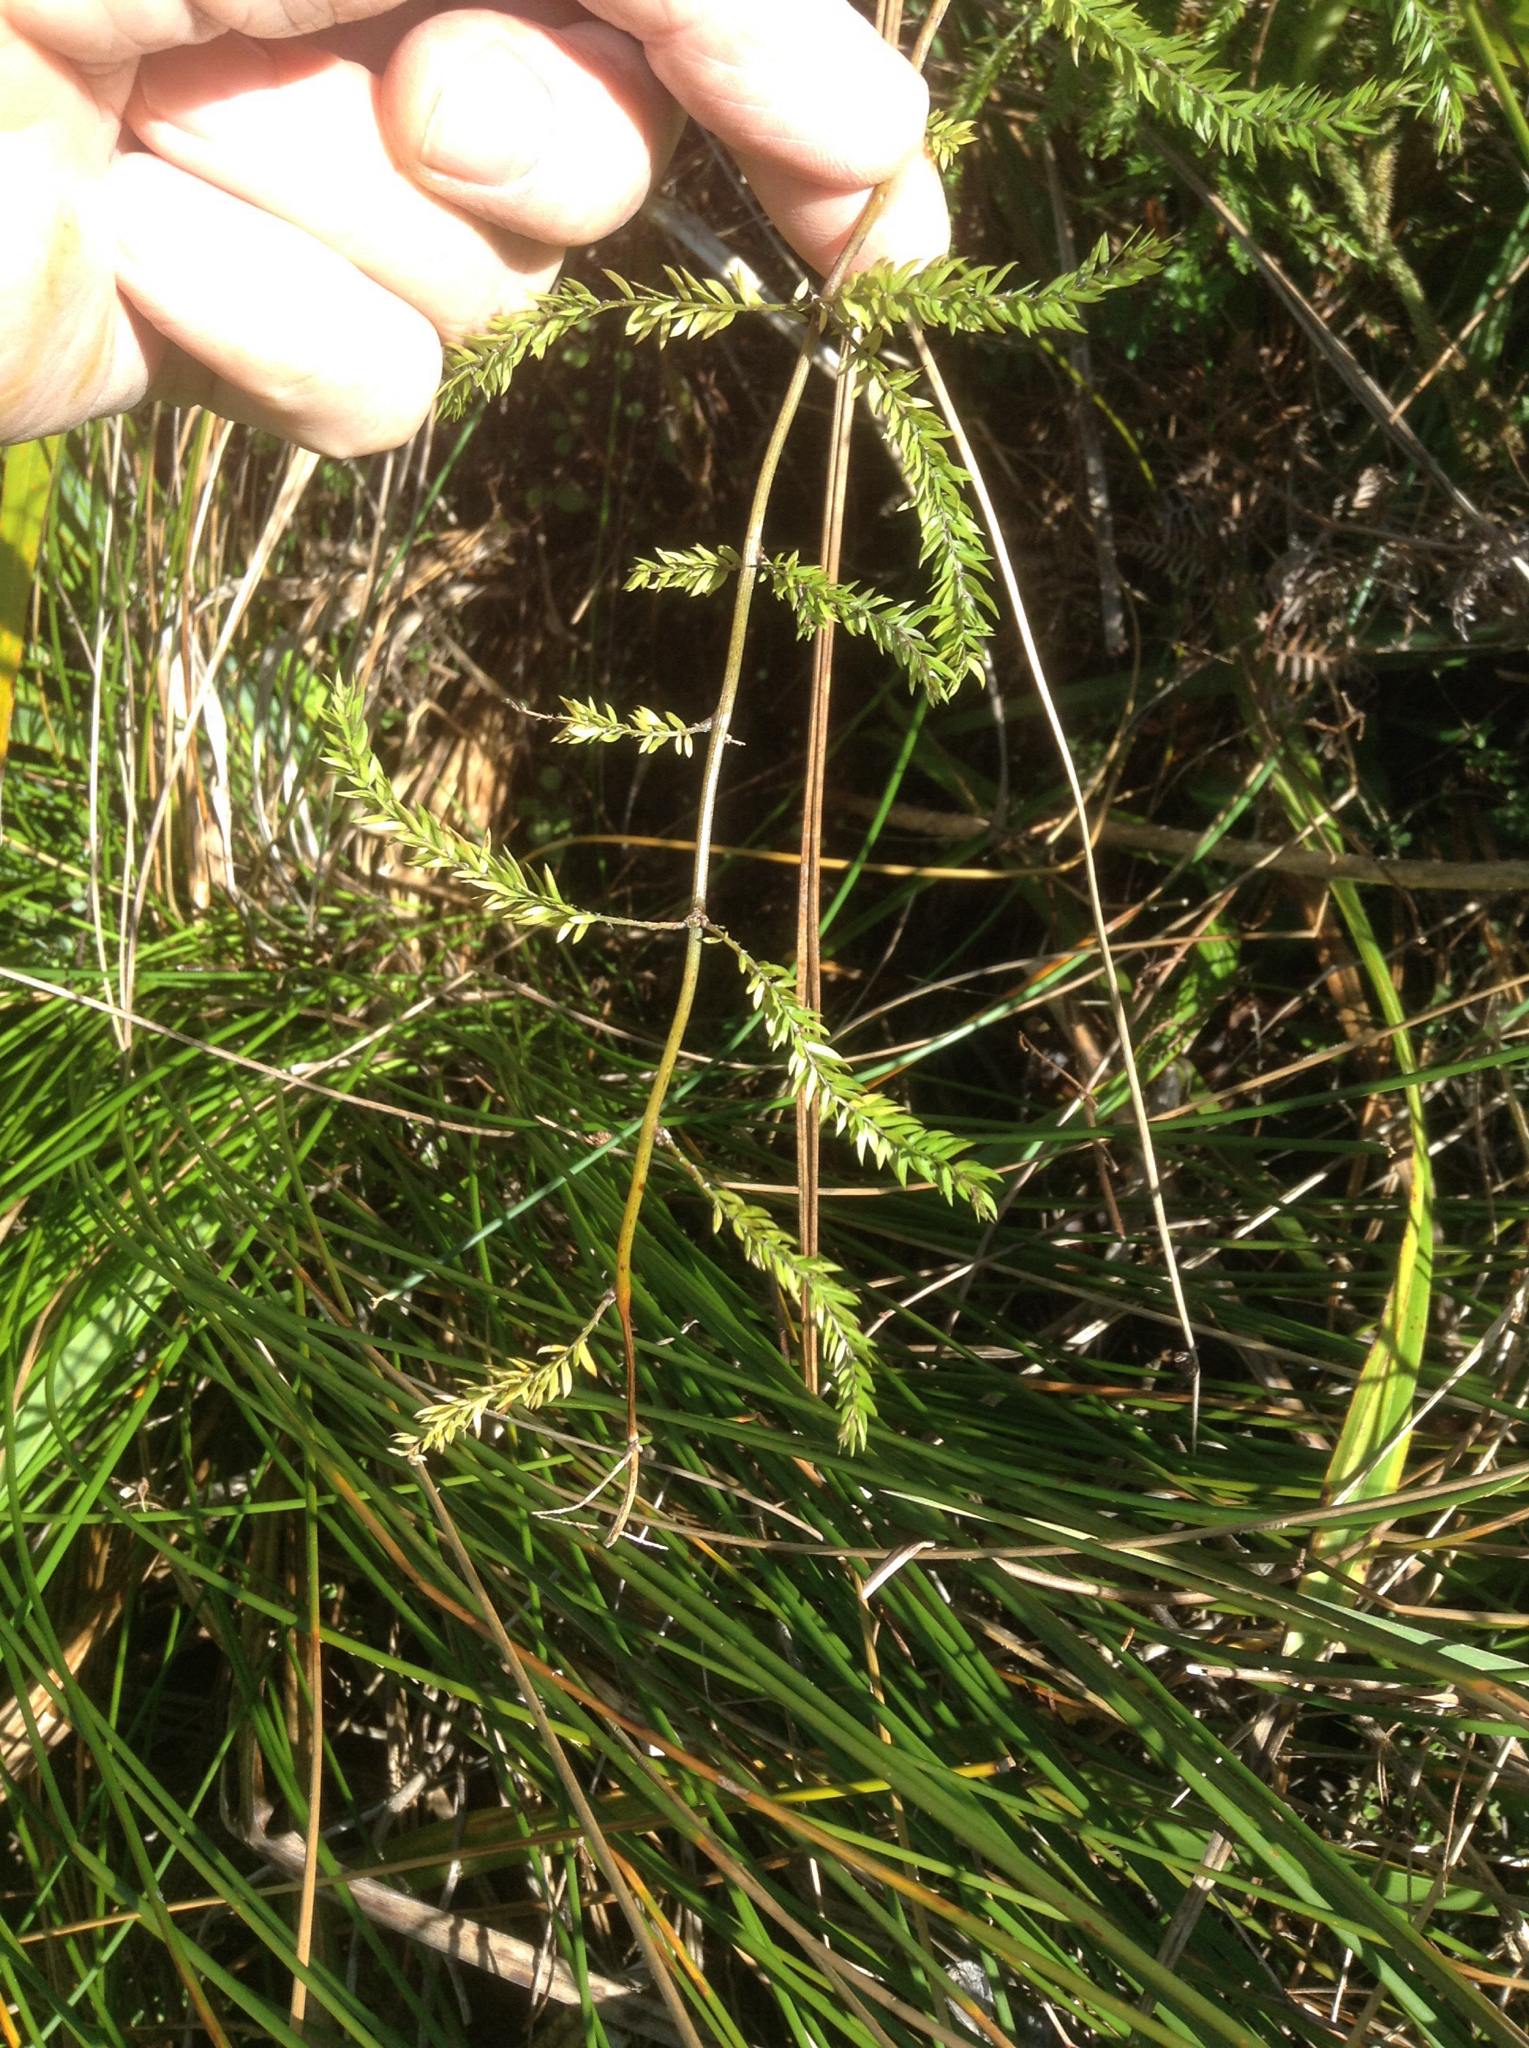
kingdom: Plantae
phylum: Tracheophyta
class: Liliopsida
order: Asparagales
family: Asparagaceae
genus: Asparagus
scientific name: Asparagus scandens
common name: Asparagus-fern
